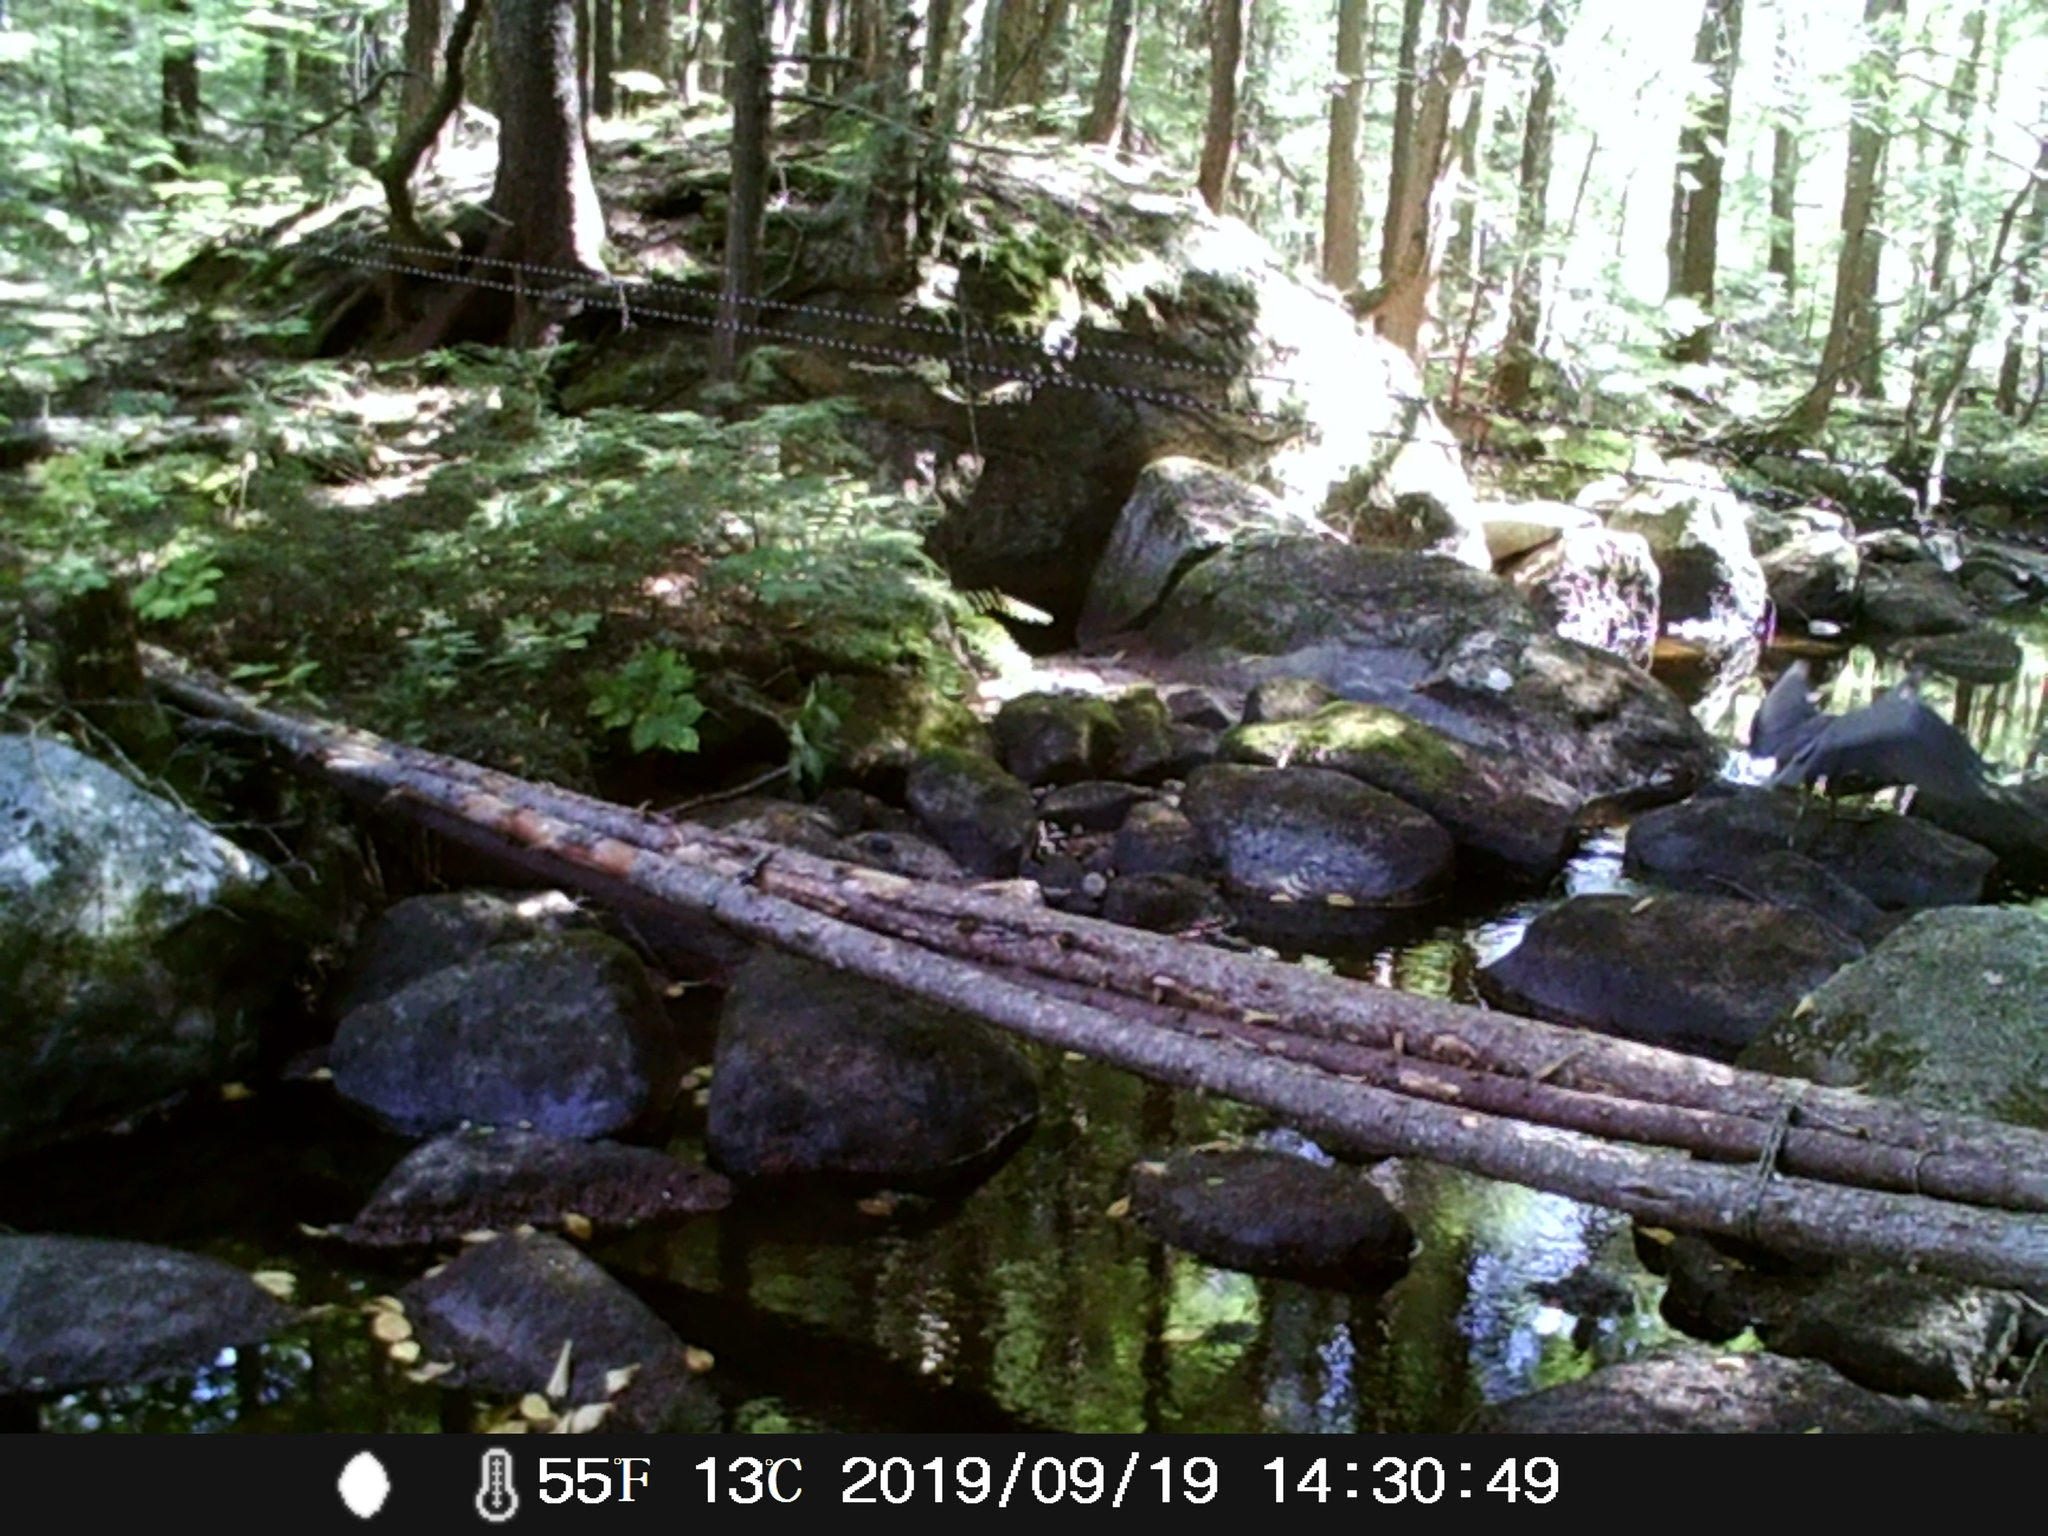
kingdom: Animalia
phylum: Chordata
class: Aves
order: Pelecaniformes
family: Ardeidae
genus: Ardea
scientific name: Ardea herodias
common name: Great blue heron
